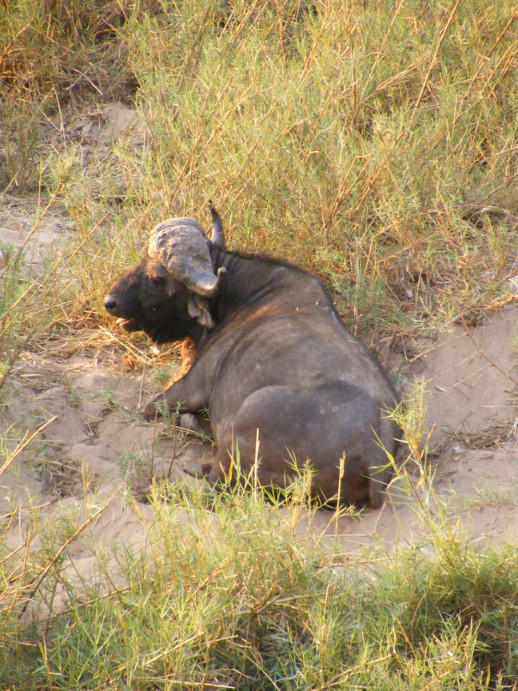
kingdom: Animalia
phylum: Chordata
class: Mammalia
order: Artiodactyla
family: Bovidae
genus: Syncerus
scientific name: Syncerus caffer
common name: African buffalo
